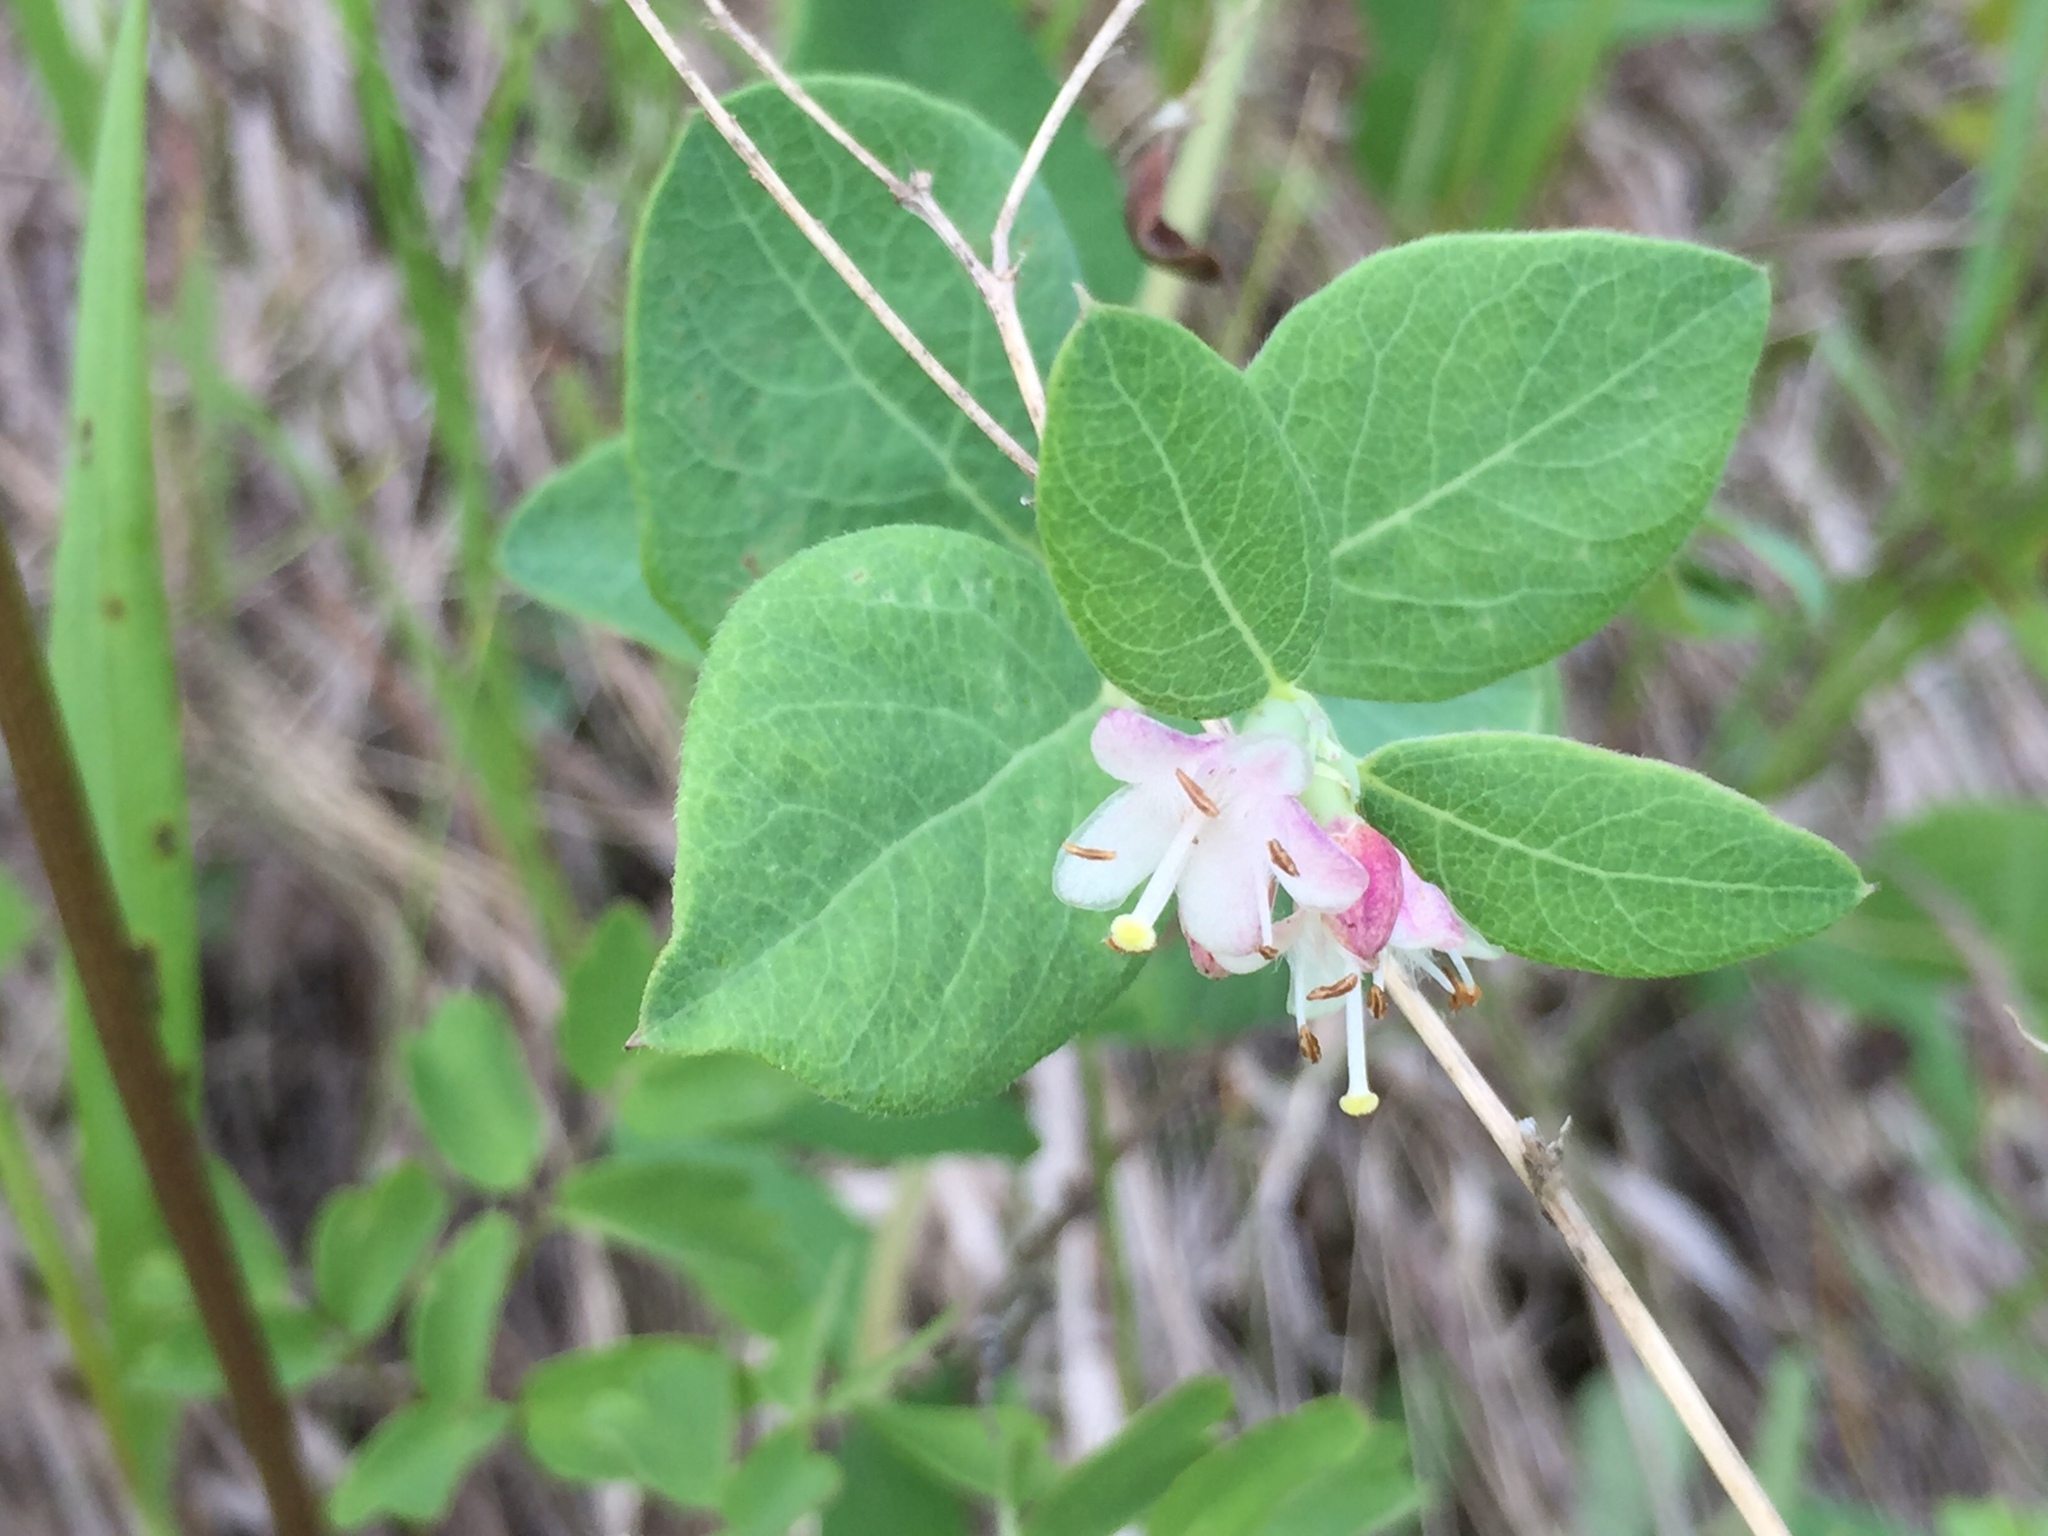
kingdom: Plantae
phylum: Tracheophyta
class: Magnoliopsida
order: Dipsacales
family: Caprifoliaceae
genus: Symphoricarpos
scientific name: Symphoricarpos occidentalis
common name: Wolfberry
